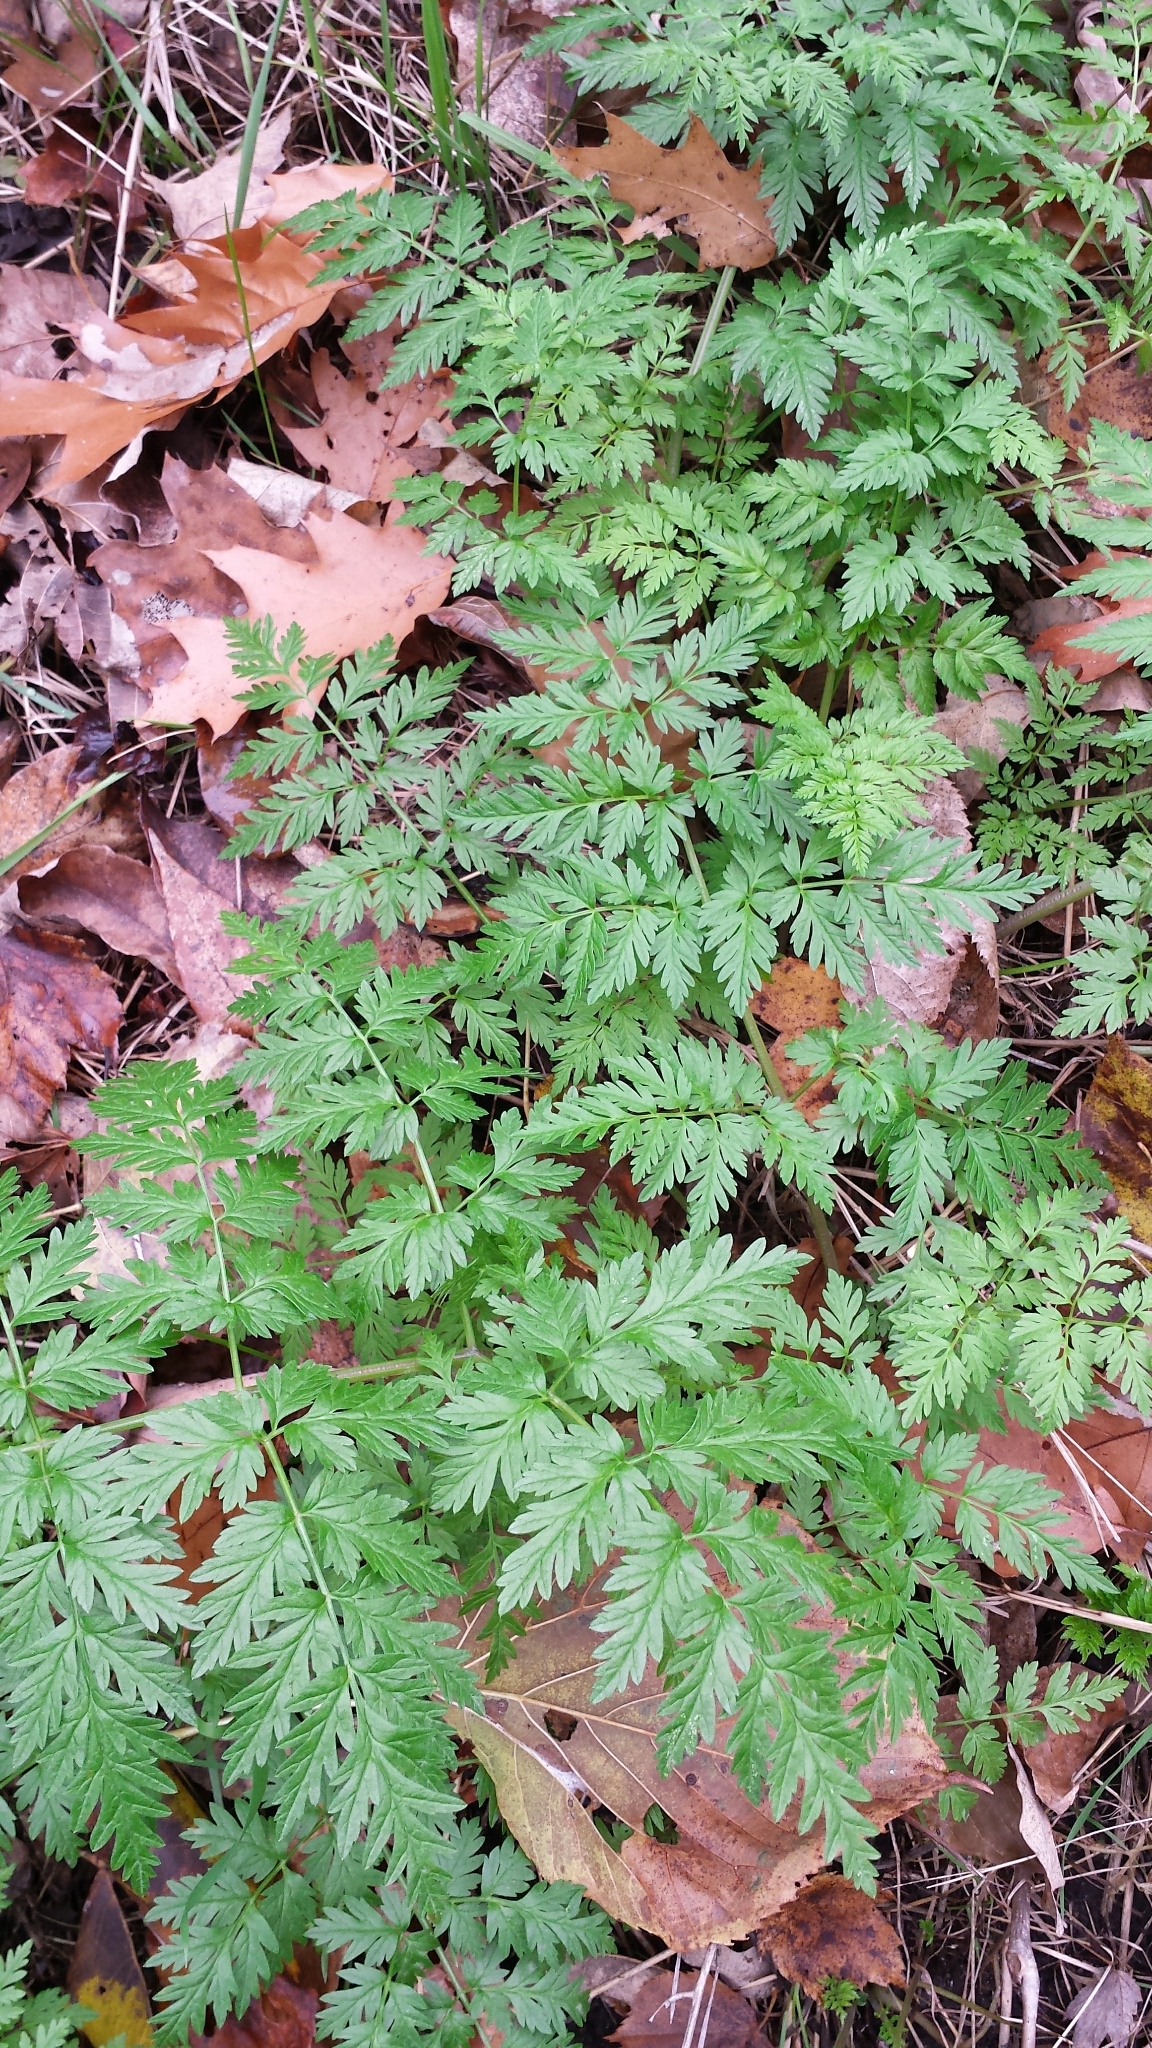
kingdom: Plantae
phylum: Tracheophyta
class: Magnoliopsida
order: Apiales
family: Apiaceae
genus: Anthriscus
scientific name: Anthriscus sylvestris
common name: Cow parsley
